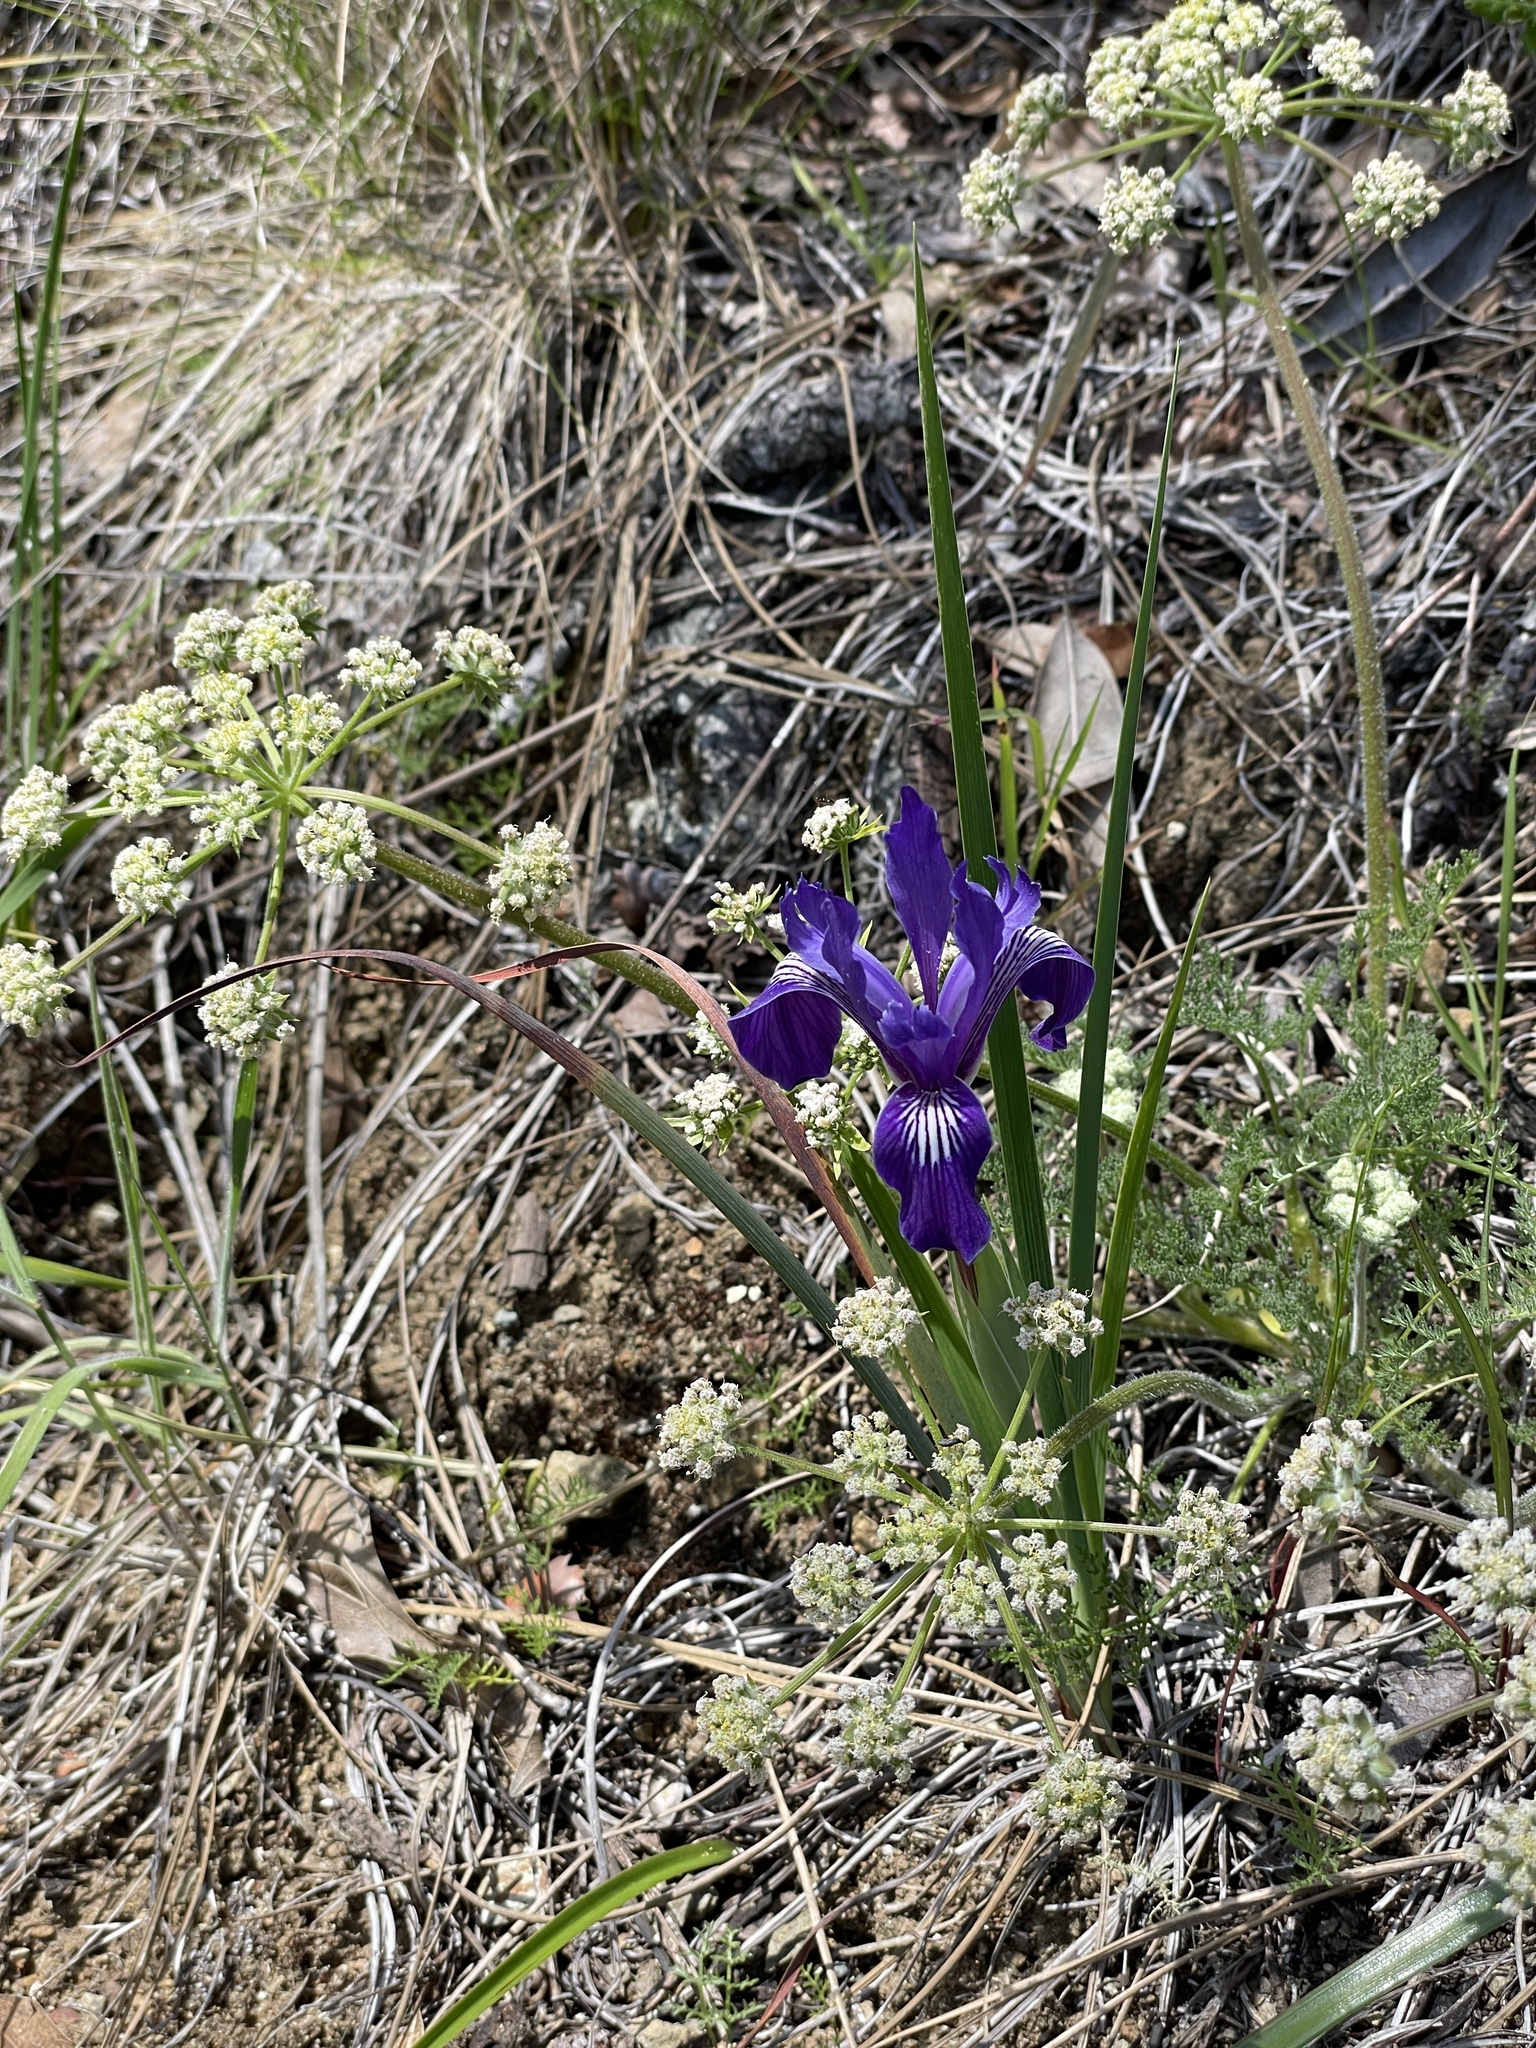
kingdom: Plantae
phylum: Tracheophyta
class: Liliopsida
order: Asparagales
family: Iridaceae
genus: Iris
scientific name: Iris macrosiphon
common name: Ground iris
